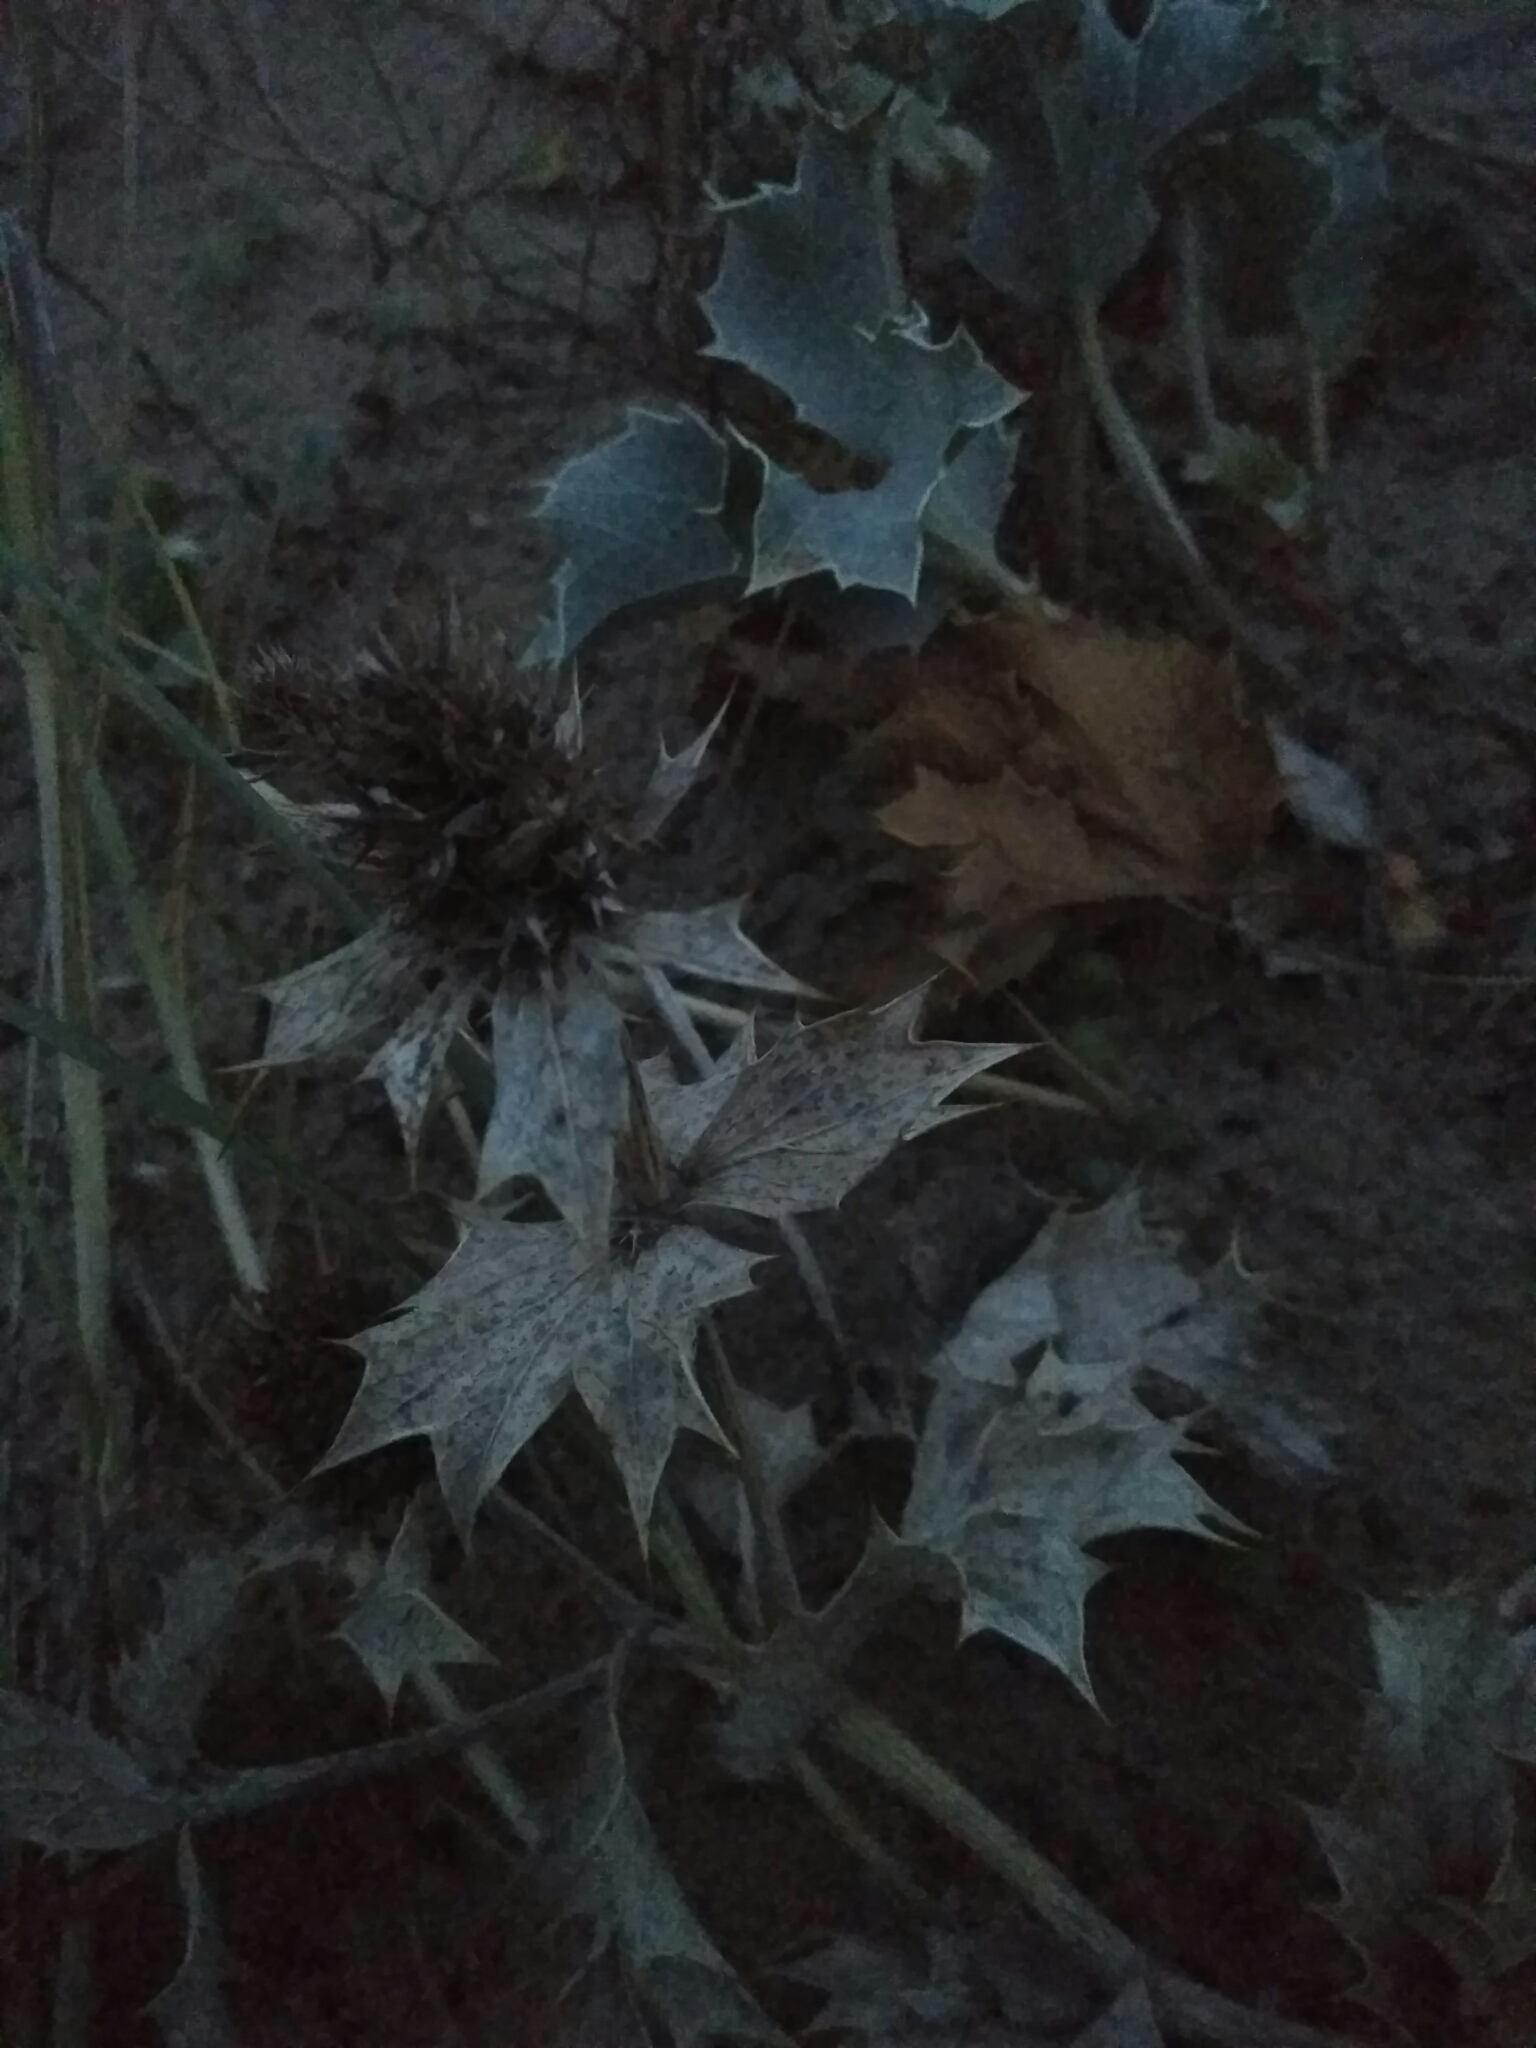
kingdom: Plantae
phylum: Tracheophyta
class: Magnoliopsida
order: Apiales
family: Apiaceae
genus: Eryngium
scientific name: Eryngium maritimum
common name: Sea-holly
